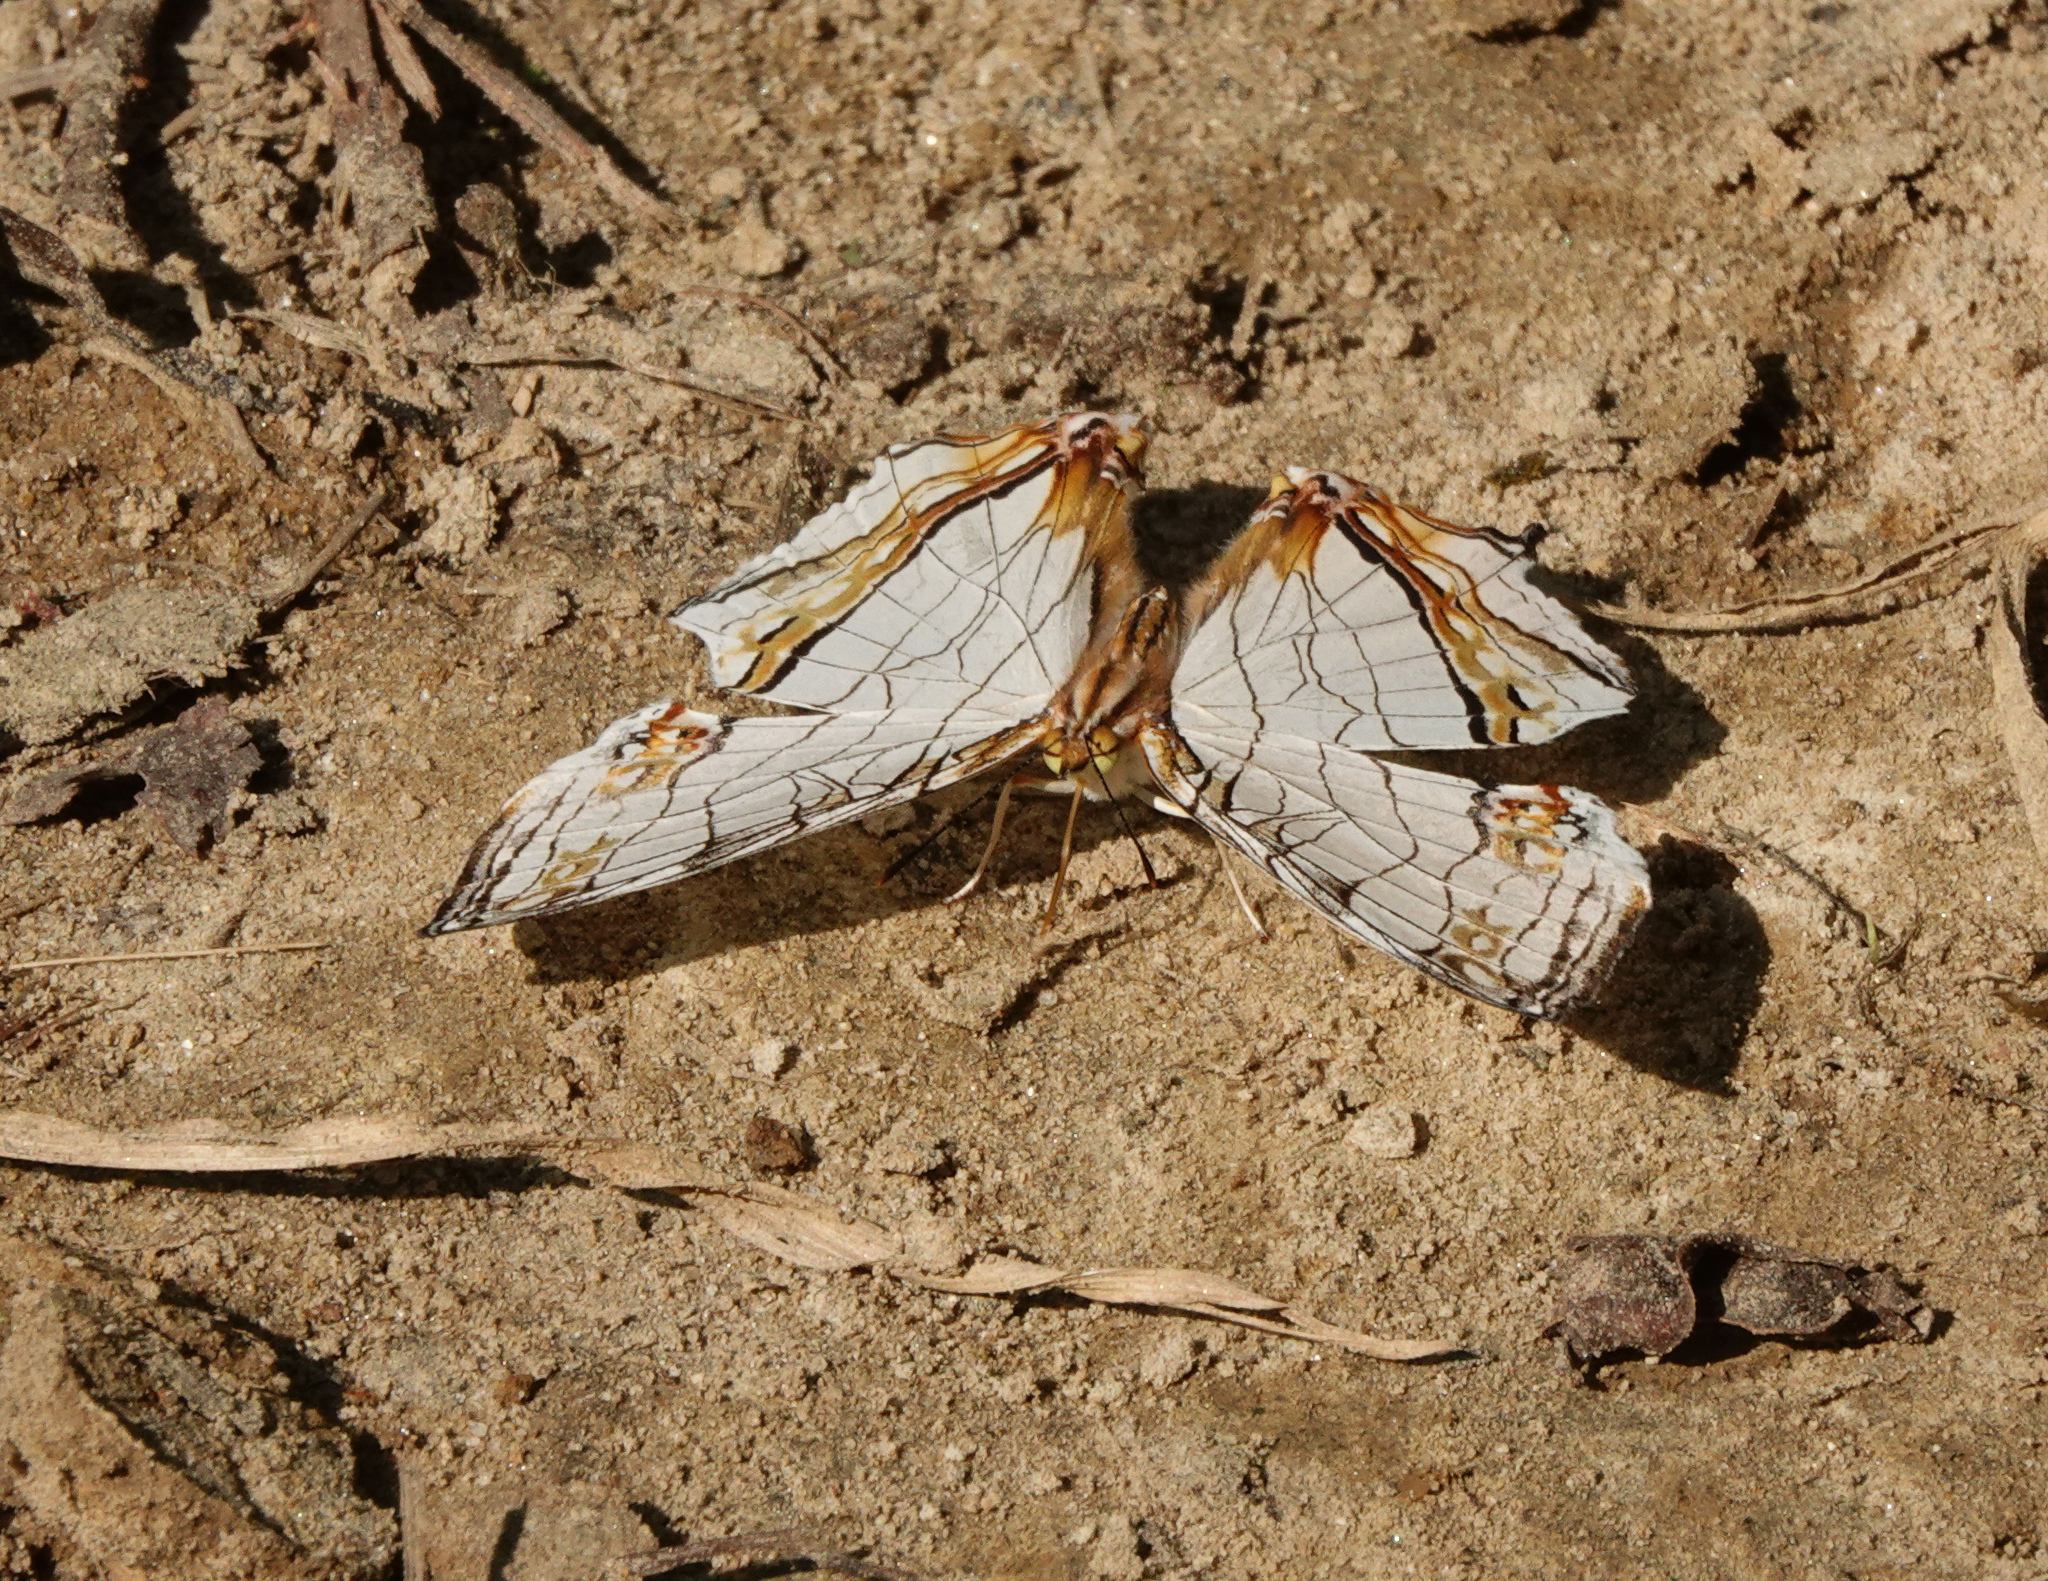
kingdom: Animalia
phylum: Arthropoda
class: Insecta
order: Lepidoptera
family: Nymphalidae
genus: Cyrestis
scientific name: Cyrestis thyodamas
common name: Common mapwing
